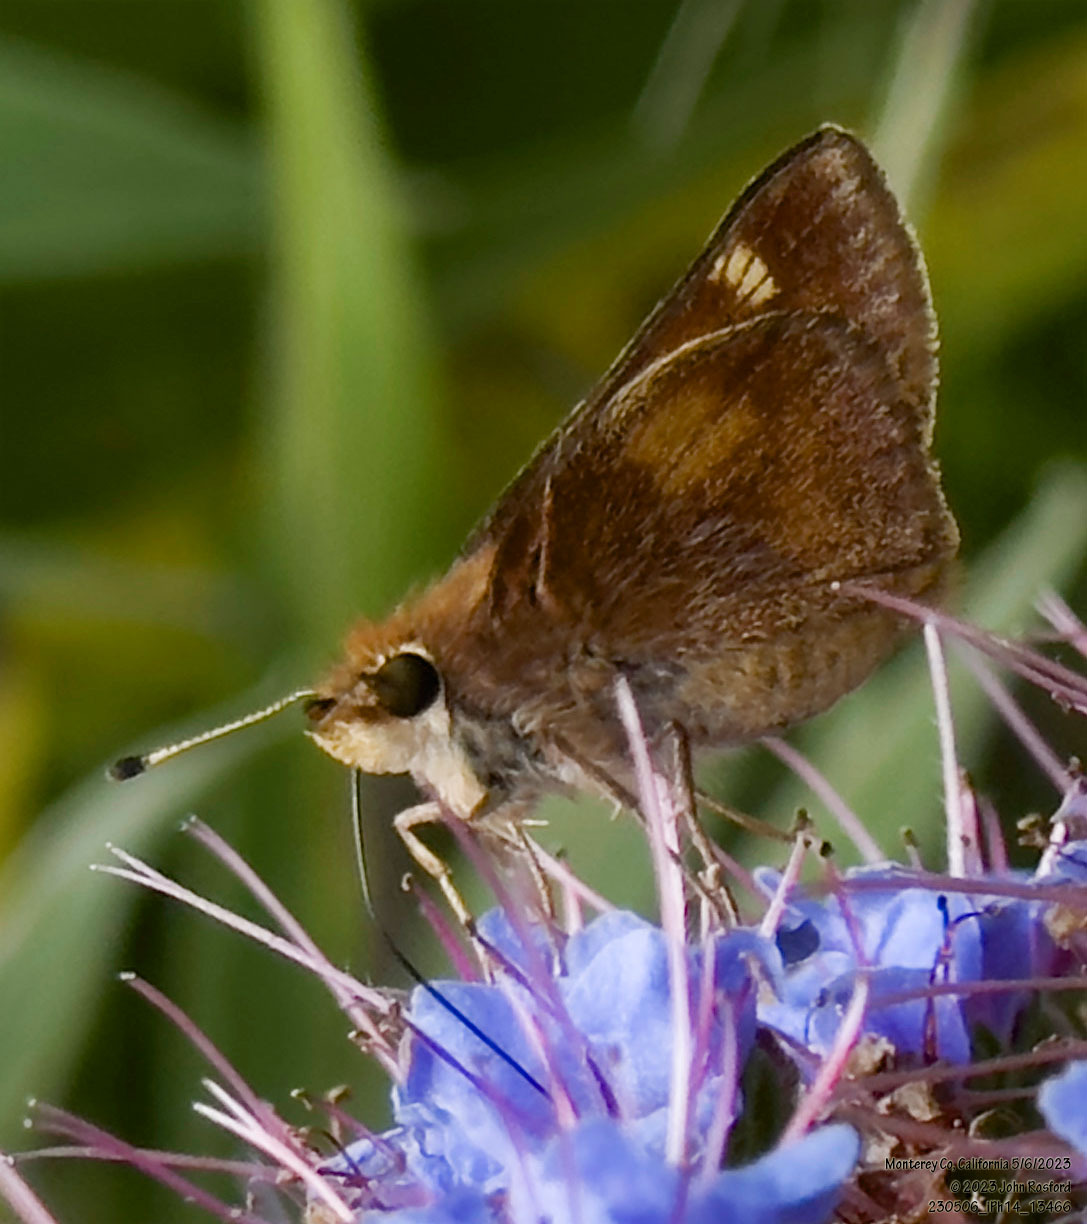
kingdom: Animalia
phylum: Arthropoda
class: Insecta
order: Lepidoptera
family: Hesperiidae
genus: Lon
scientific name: Lon melane
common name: Umber skipper
